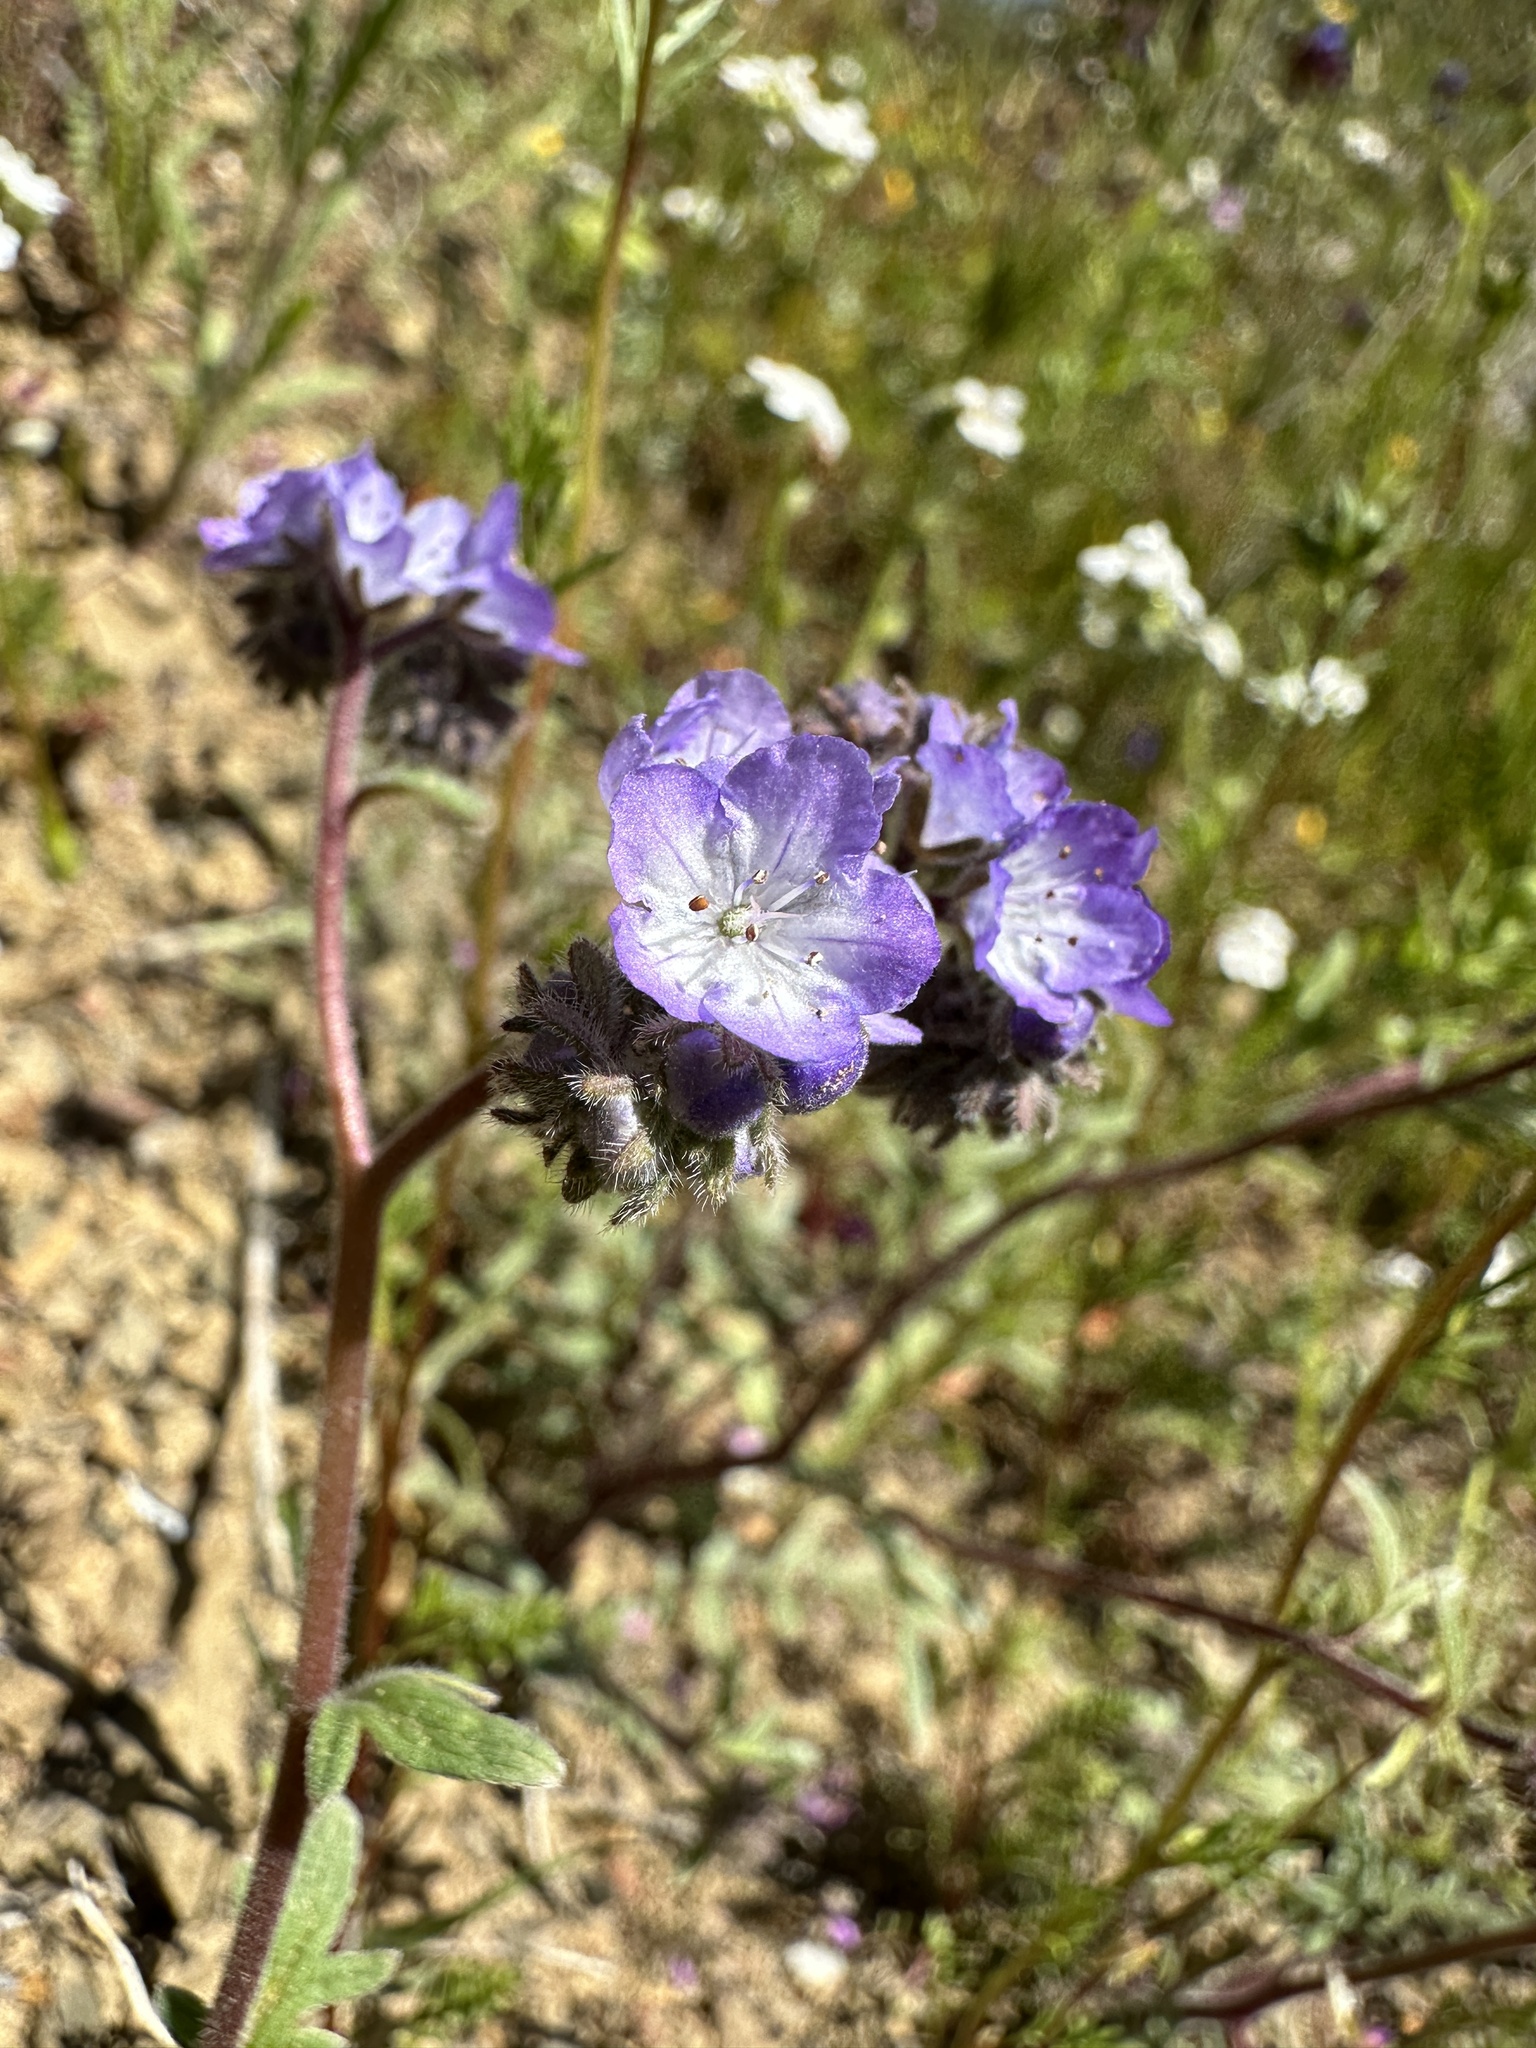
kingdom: Plantae
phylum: Tracheophyta
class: Magnoliopsida
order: Boraginales
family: Hydrophyllaceae
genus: Phacelia
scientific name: Phacelia breweri
